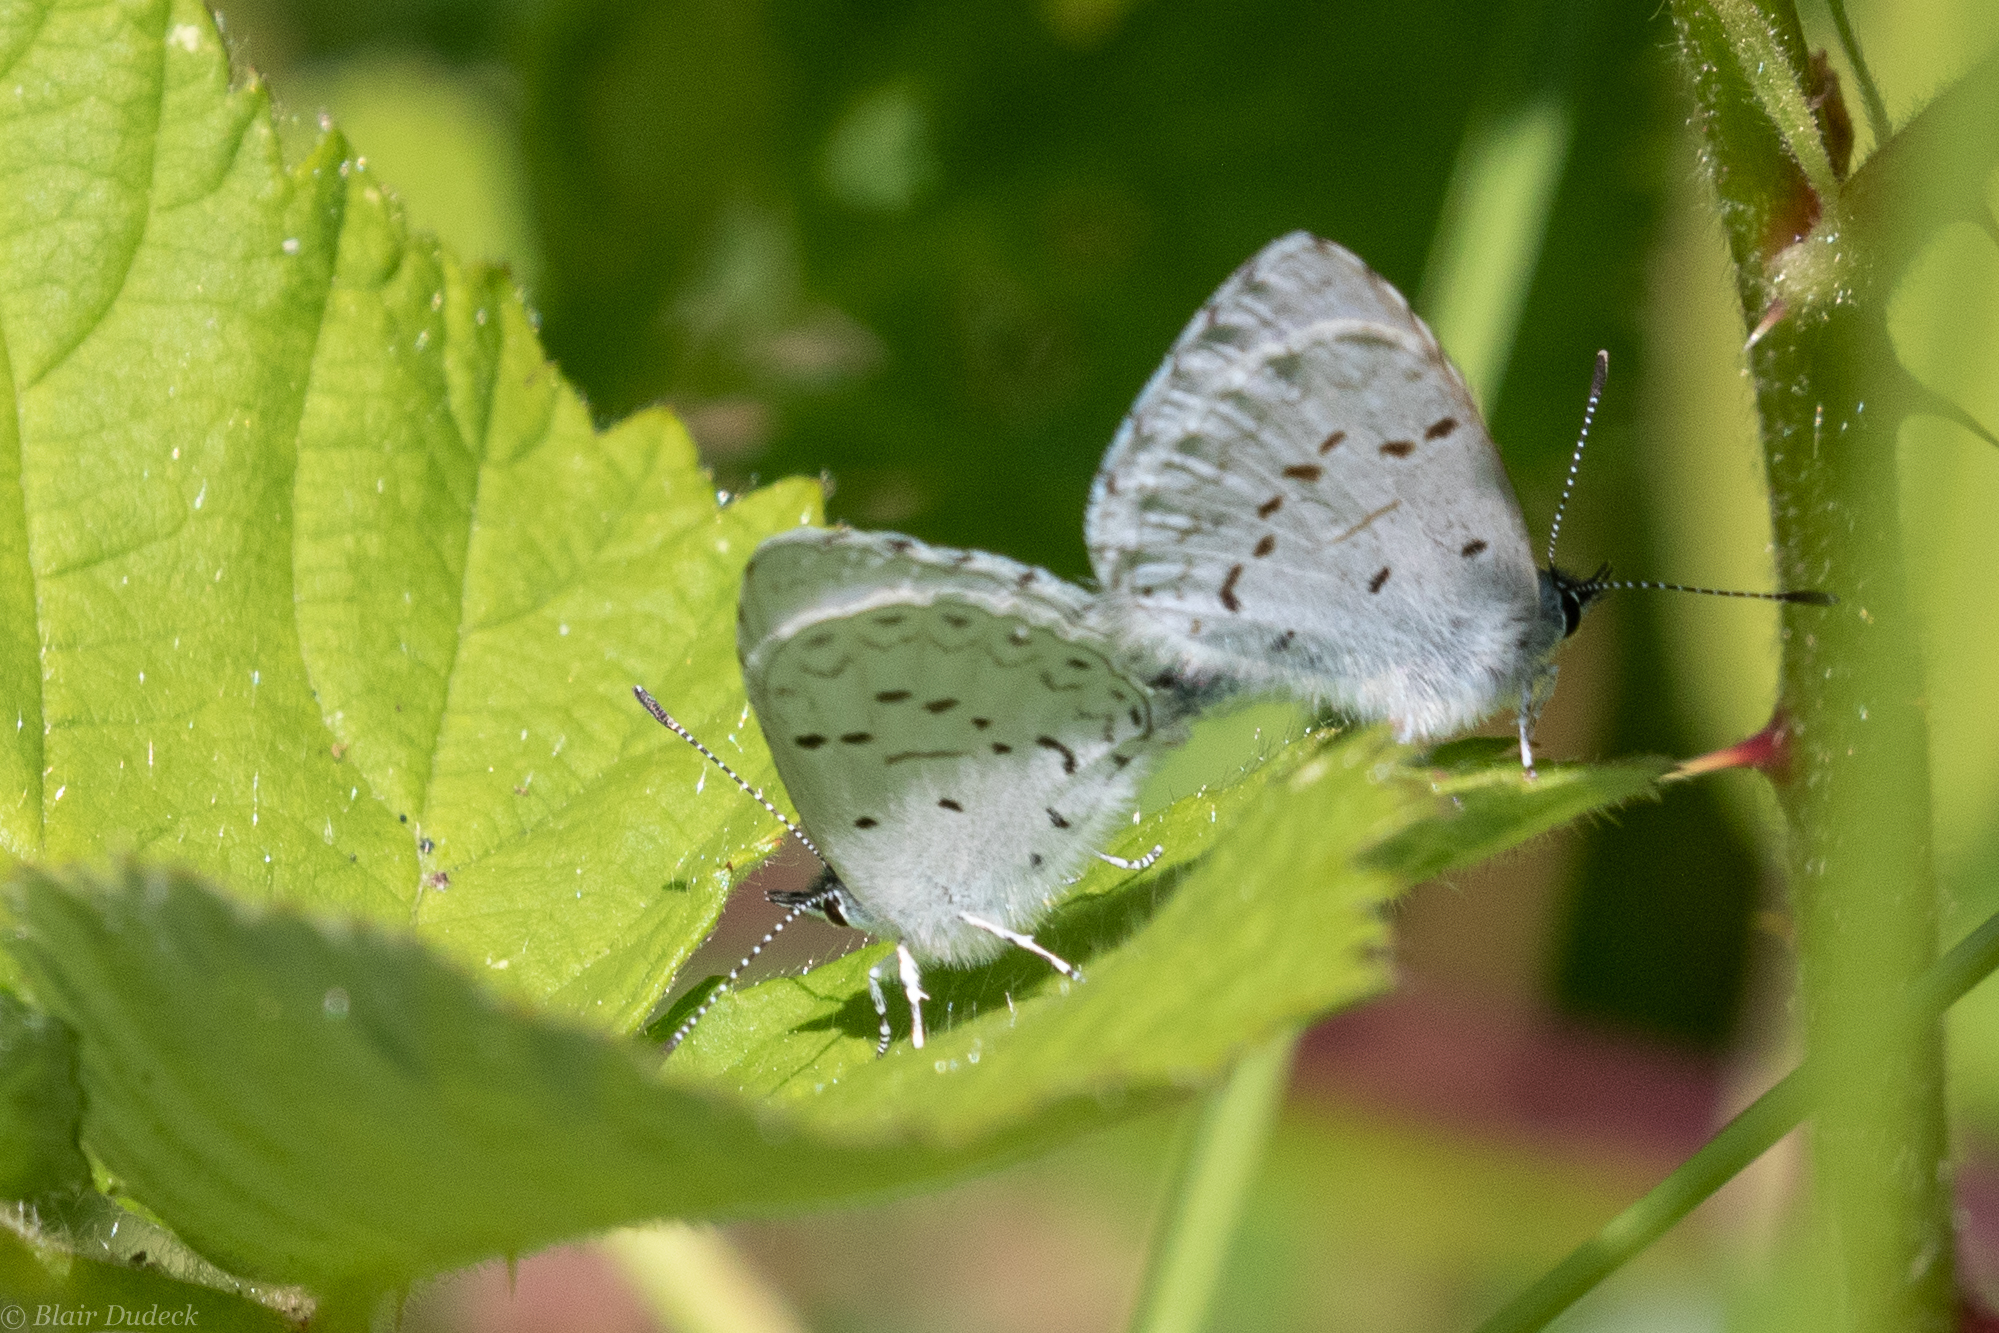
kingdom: Animalia
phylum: Arthropoda
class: Insecta
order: Lepidoptera
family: Lycaenidae
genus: Celastrina
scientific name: Celastrina ladon
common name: Spring azure
